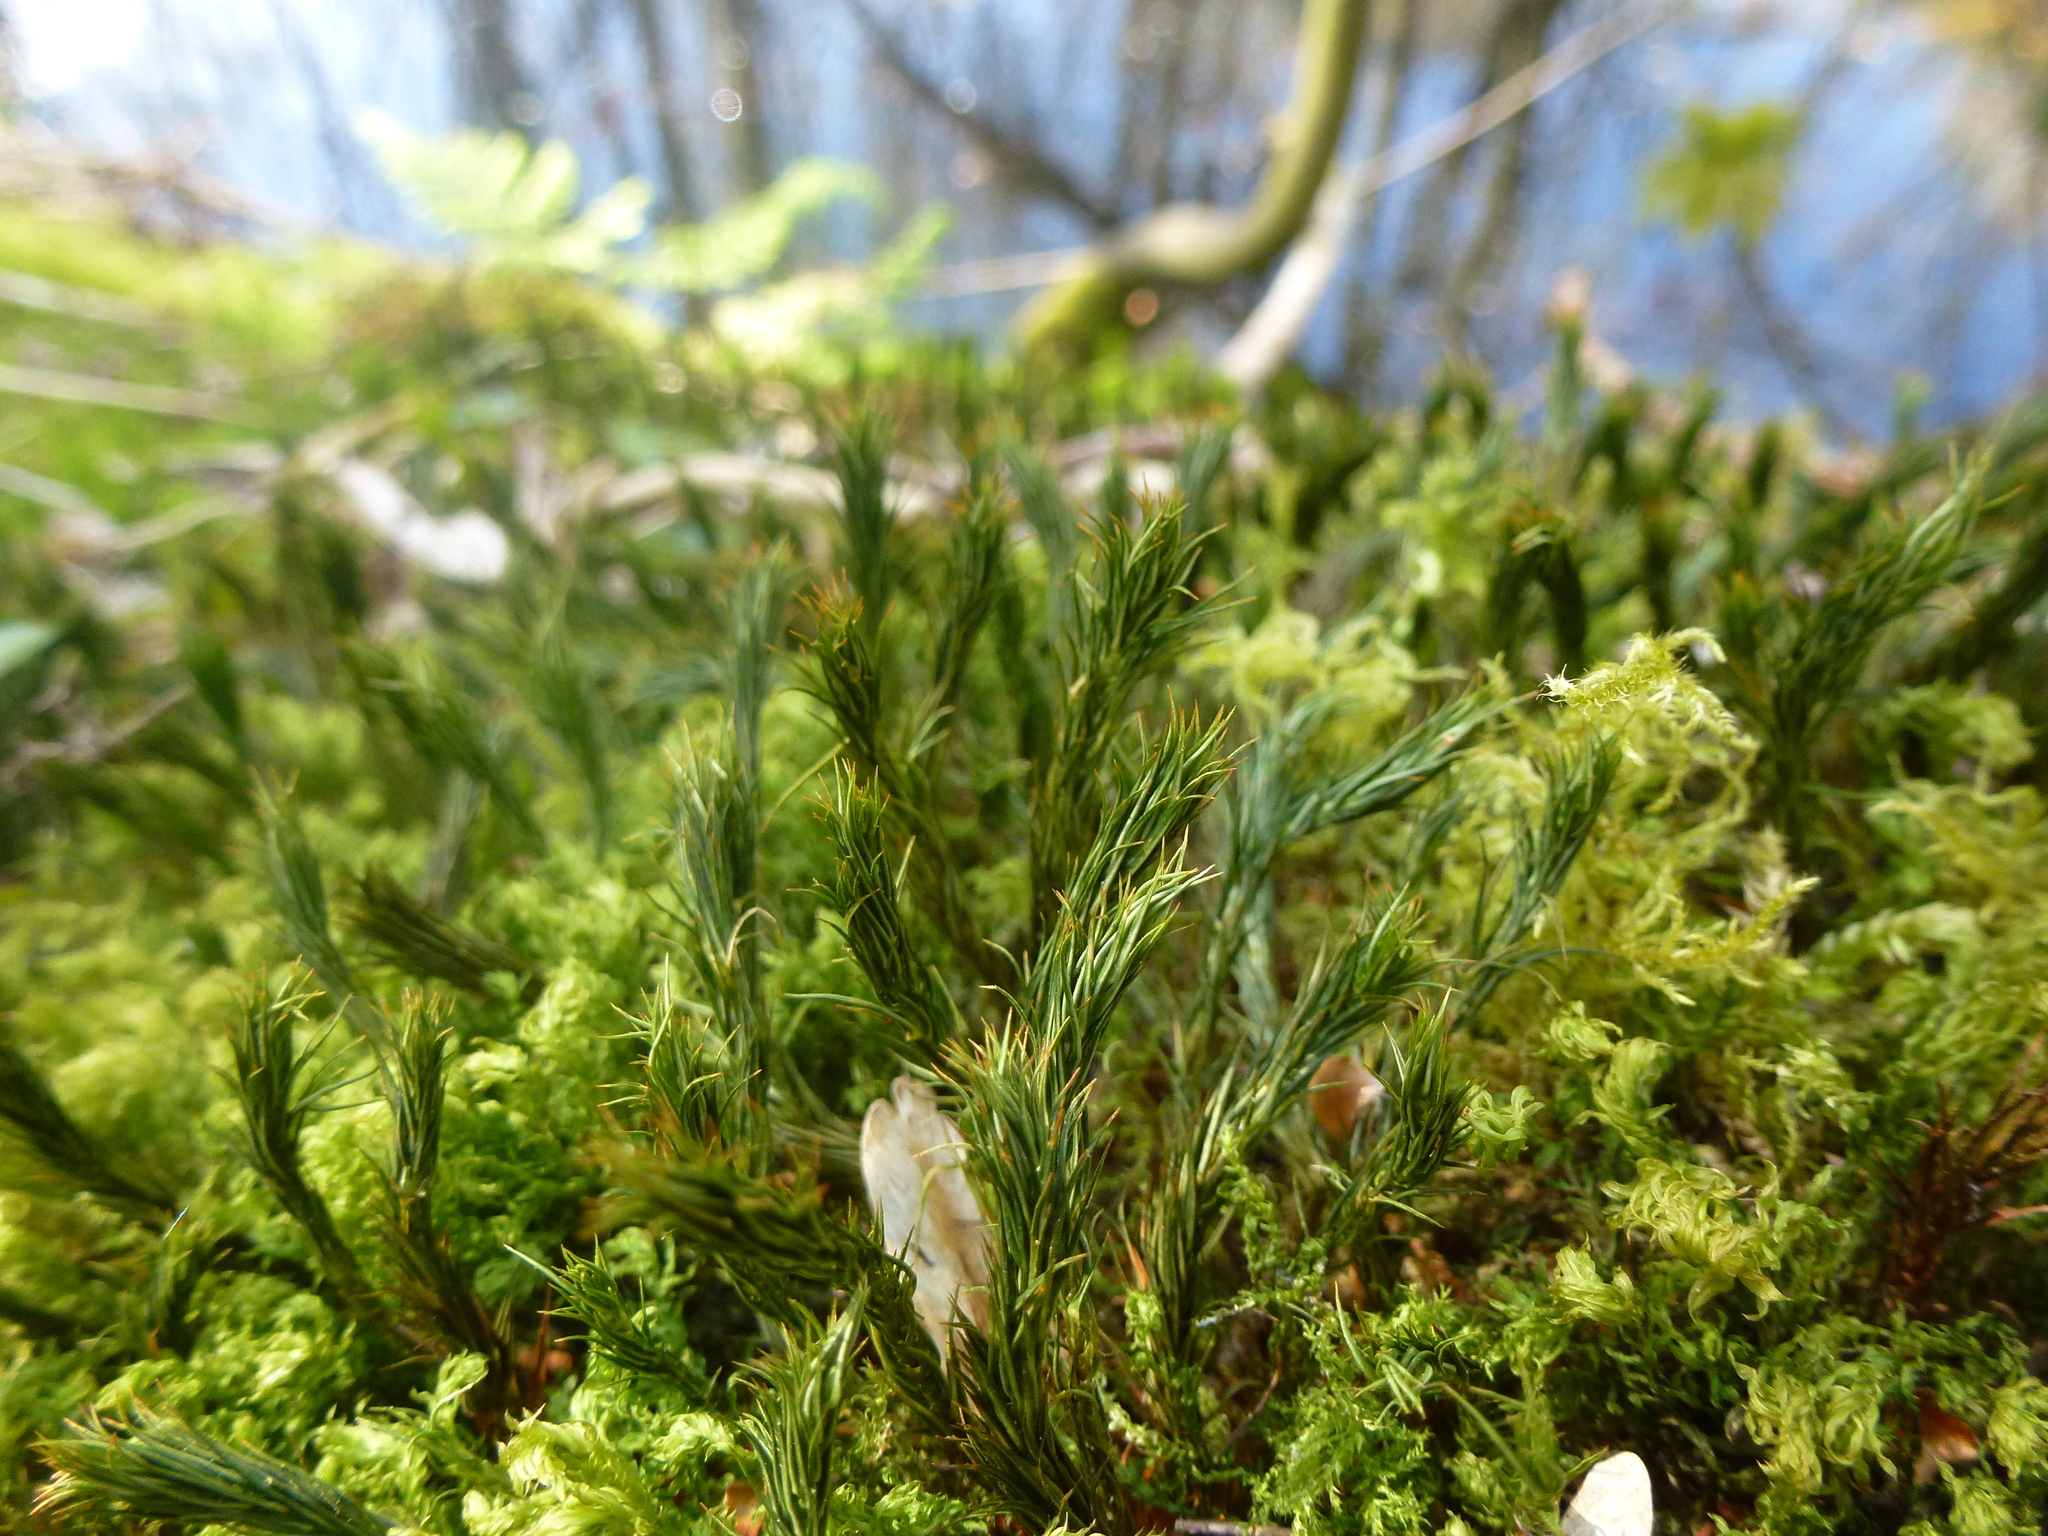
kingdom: Plantae
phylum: Bryophyta
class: Polytrichopsida
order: Polytrichales
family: Polytrichaceae
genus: Polytrichum
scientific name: Polytrichum formosum
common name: Bank haircap moss
